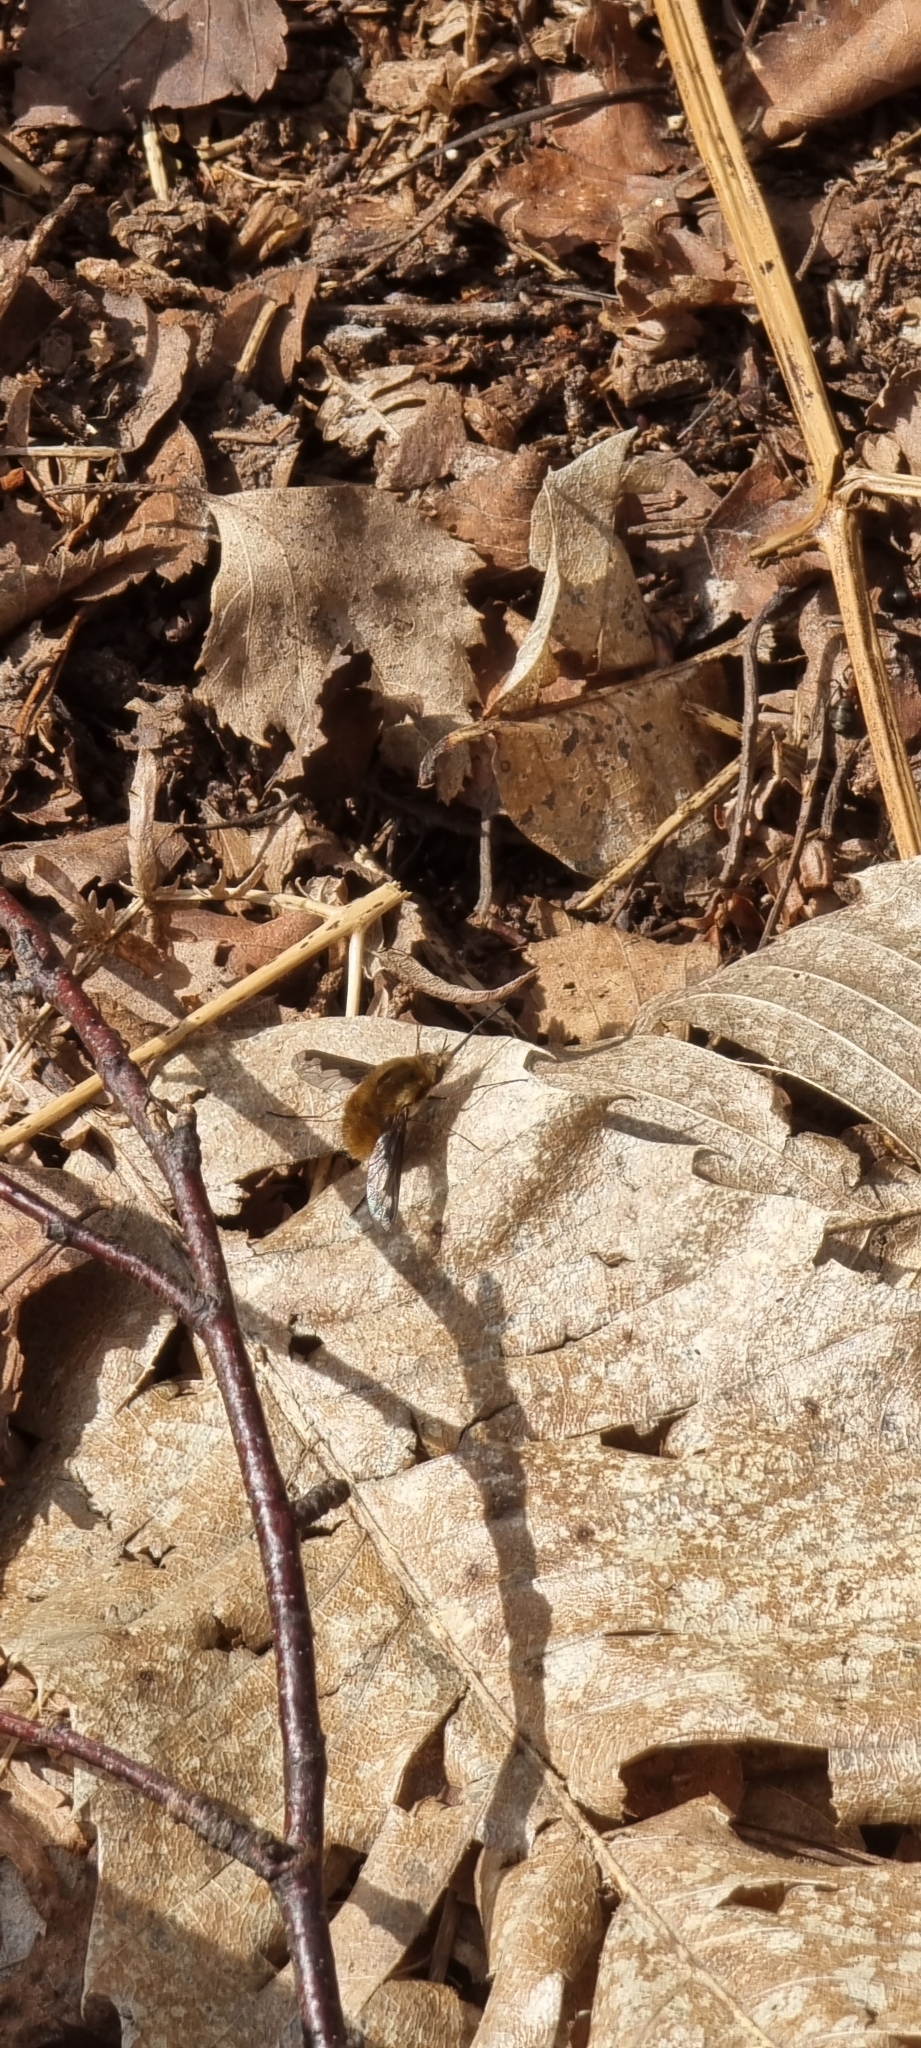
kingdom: Animalia
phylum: Arthropoda
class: Insecta
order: Diptera
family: Bombyliidae
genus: Bombylius
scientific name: Bombylius major
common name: Bee fly
